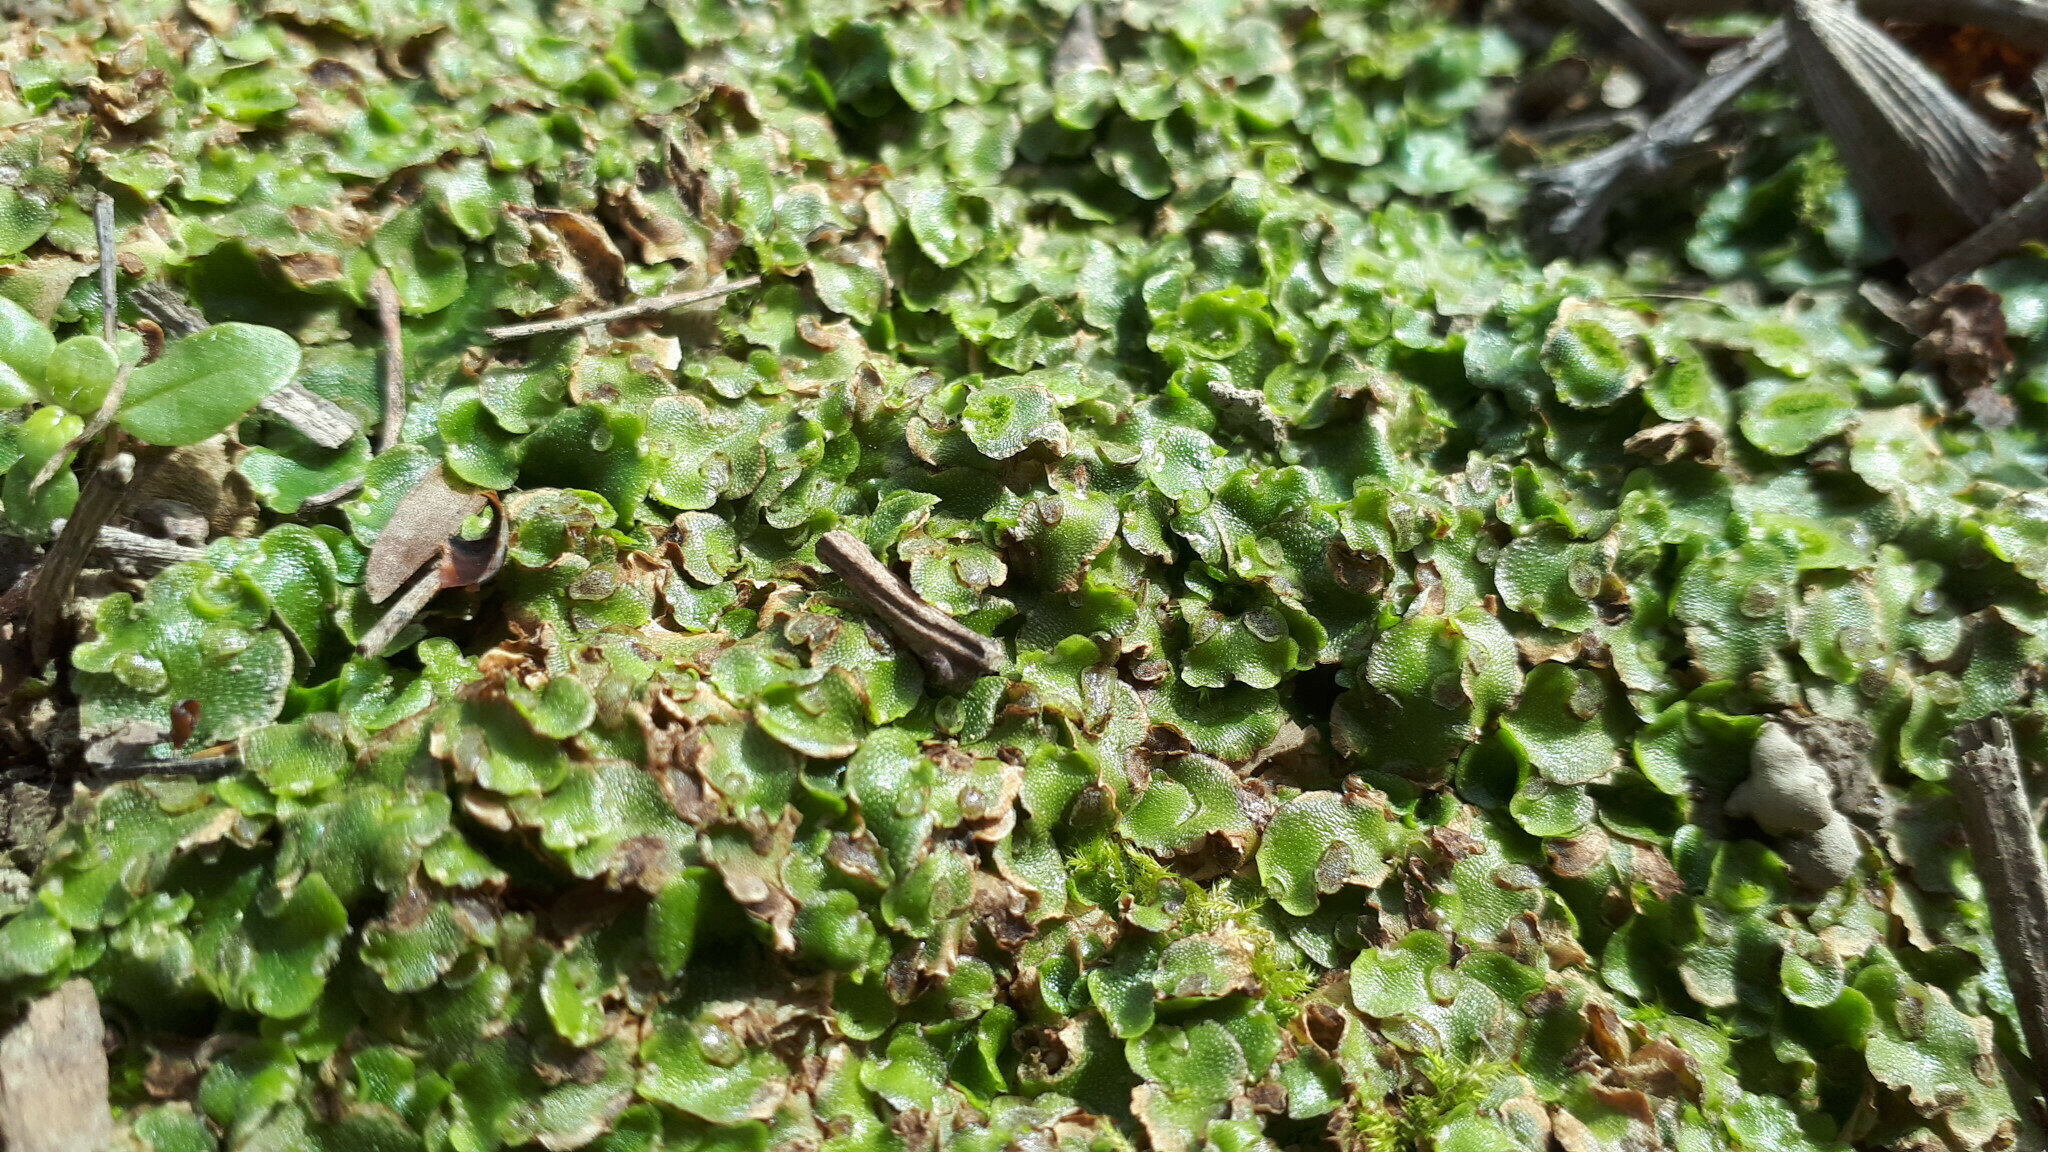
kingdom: Plantae
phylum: Marchantiophyta
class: Marchantiopsida
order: Lunulariales
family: Lunulariaceae
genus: Lunularia
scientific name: Lunularia cruciata
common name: Crescent-cup liverwort
